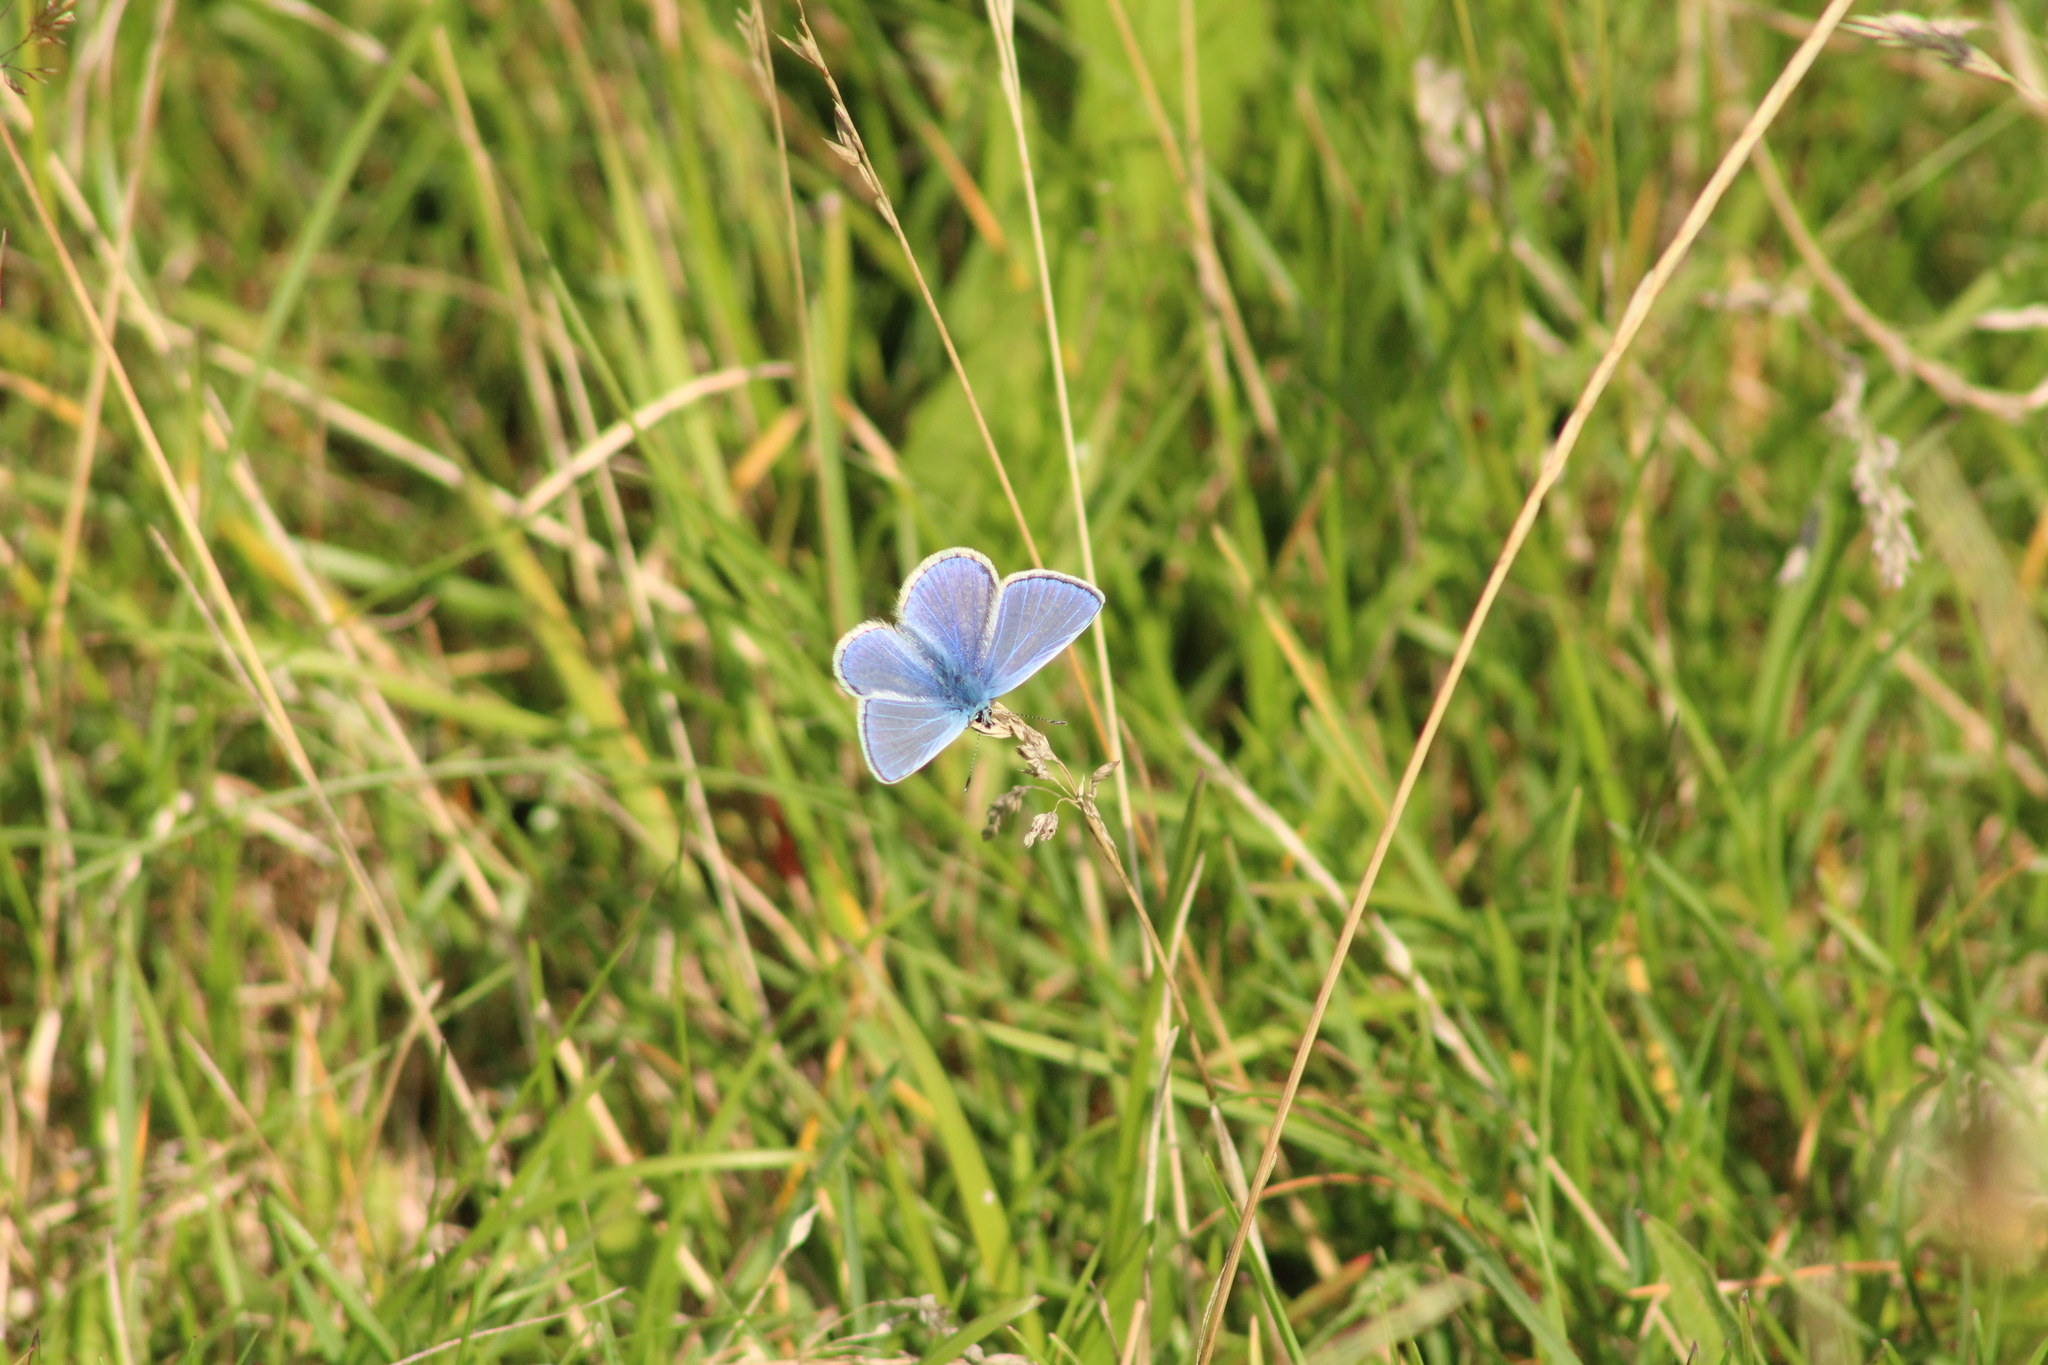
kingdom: Animalia
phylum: Arthropoda
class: Insecta
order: Lepidoptera
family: Lycaenidae
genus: Polyommatus
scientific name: Polyommatus icarus
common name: Common blue
